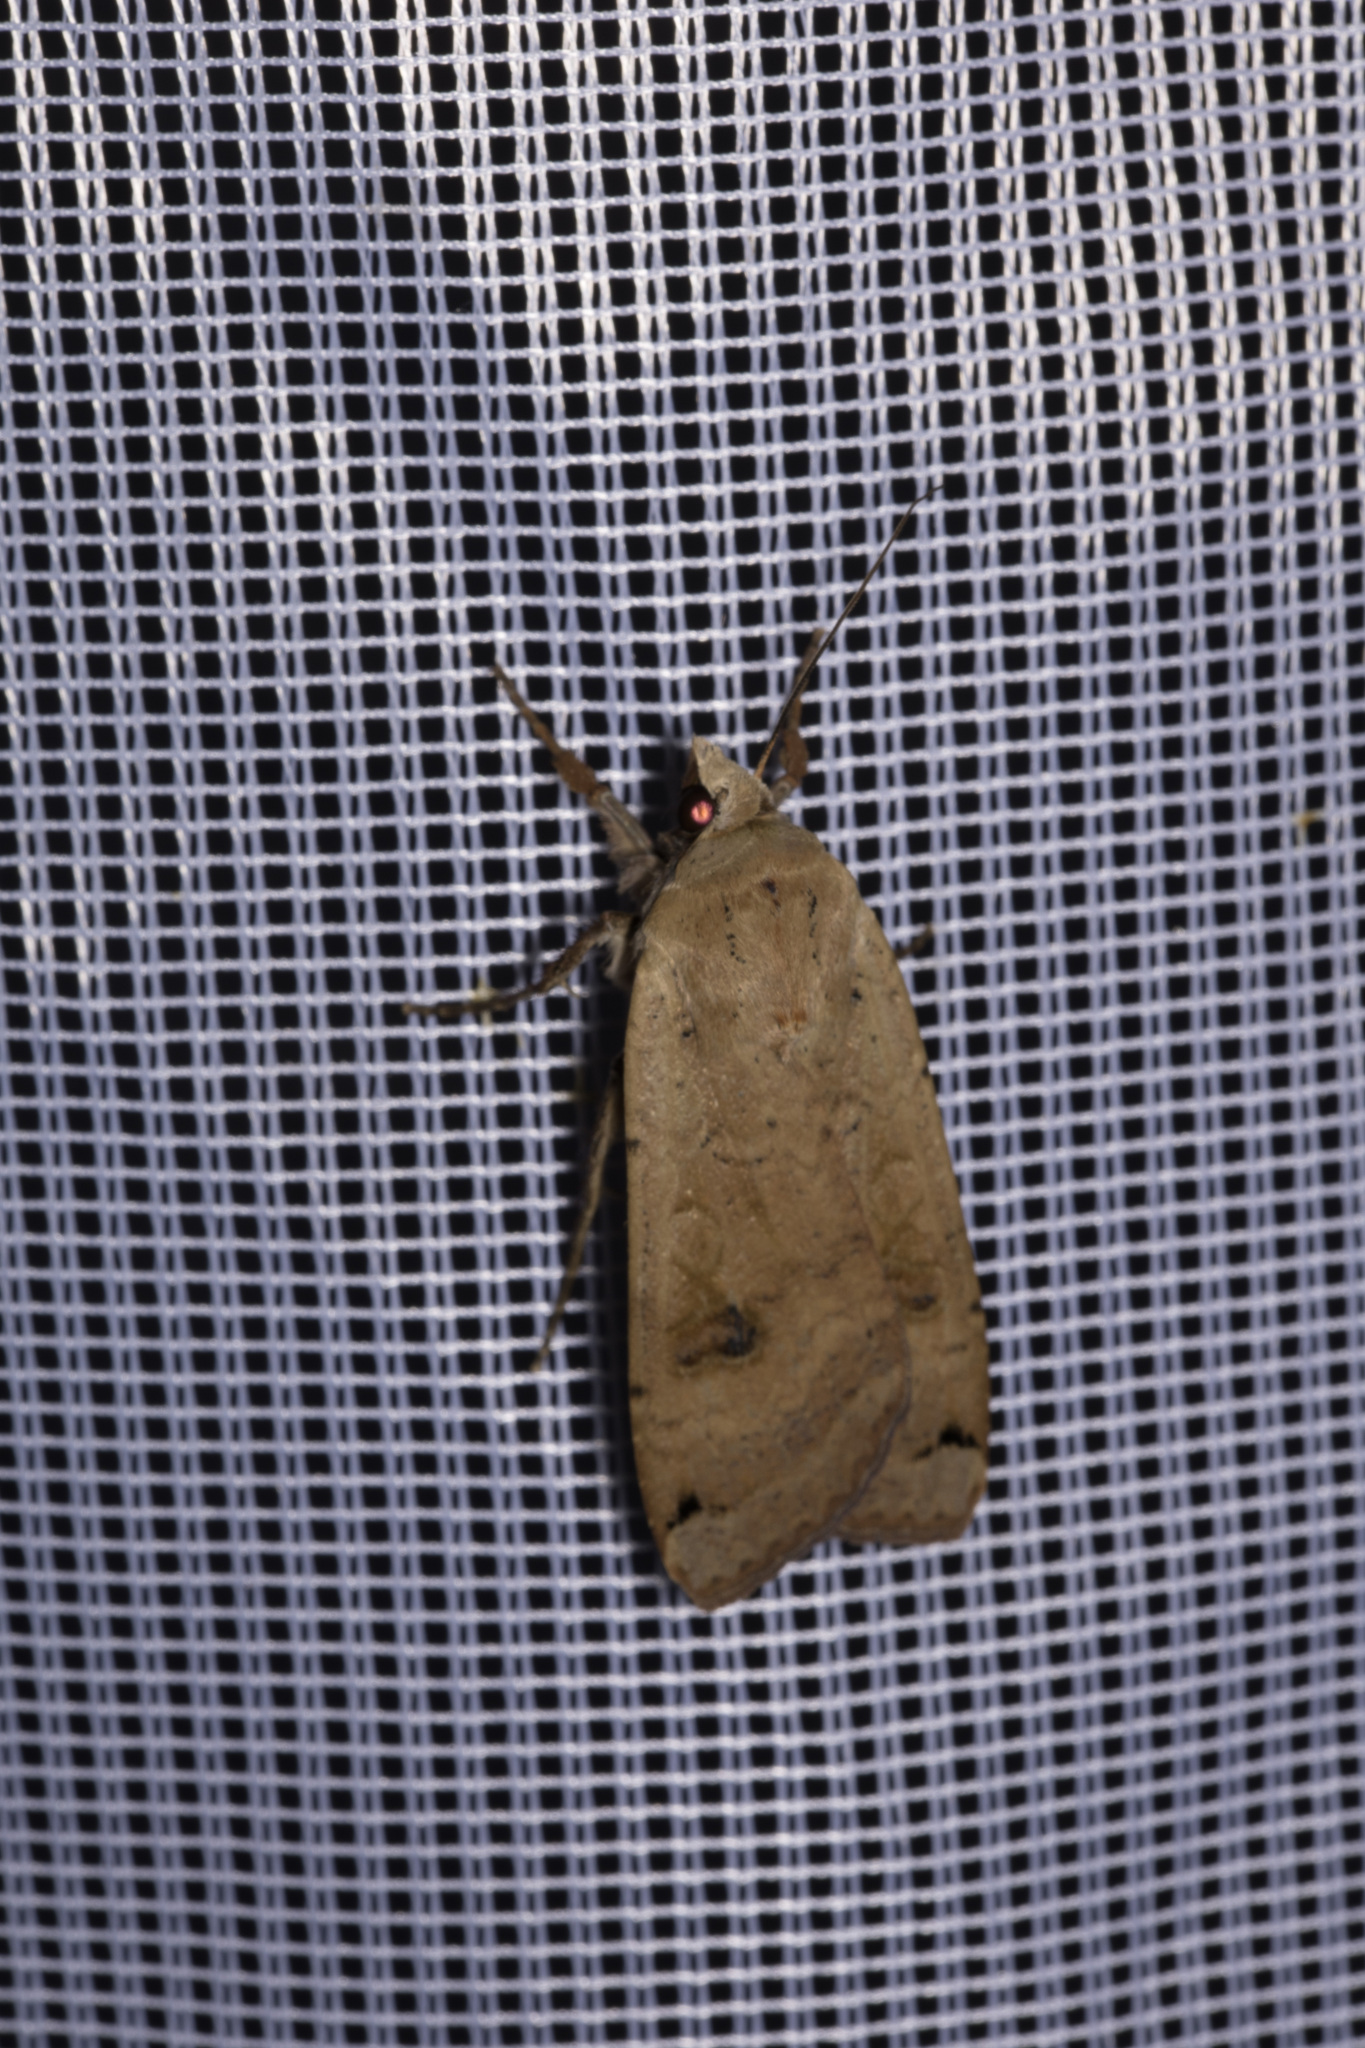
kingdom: Animalia
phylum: Arthropoda
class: Insecta
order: Lepidoptera
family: Noctuidae
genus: Noctua
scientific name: Noctua pronuba
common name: Large yellow underwing
